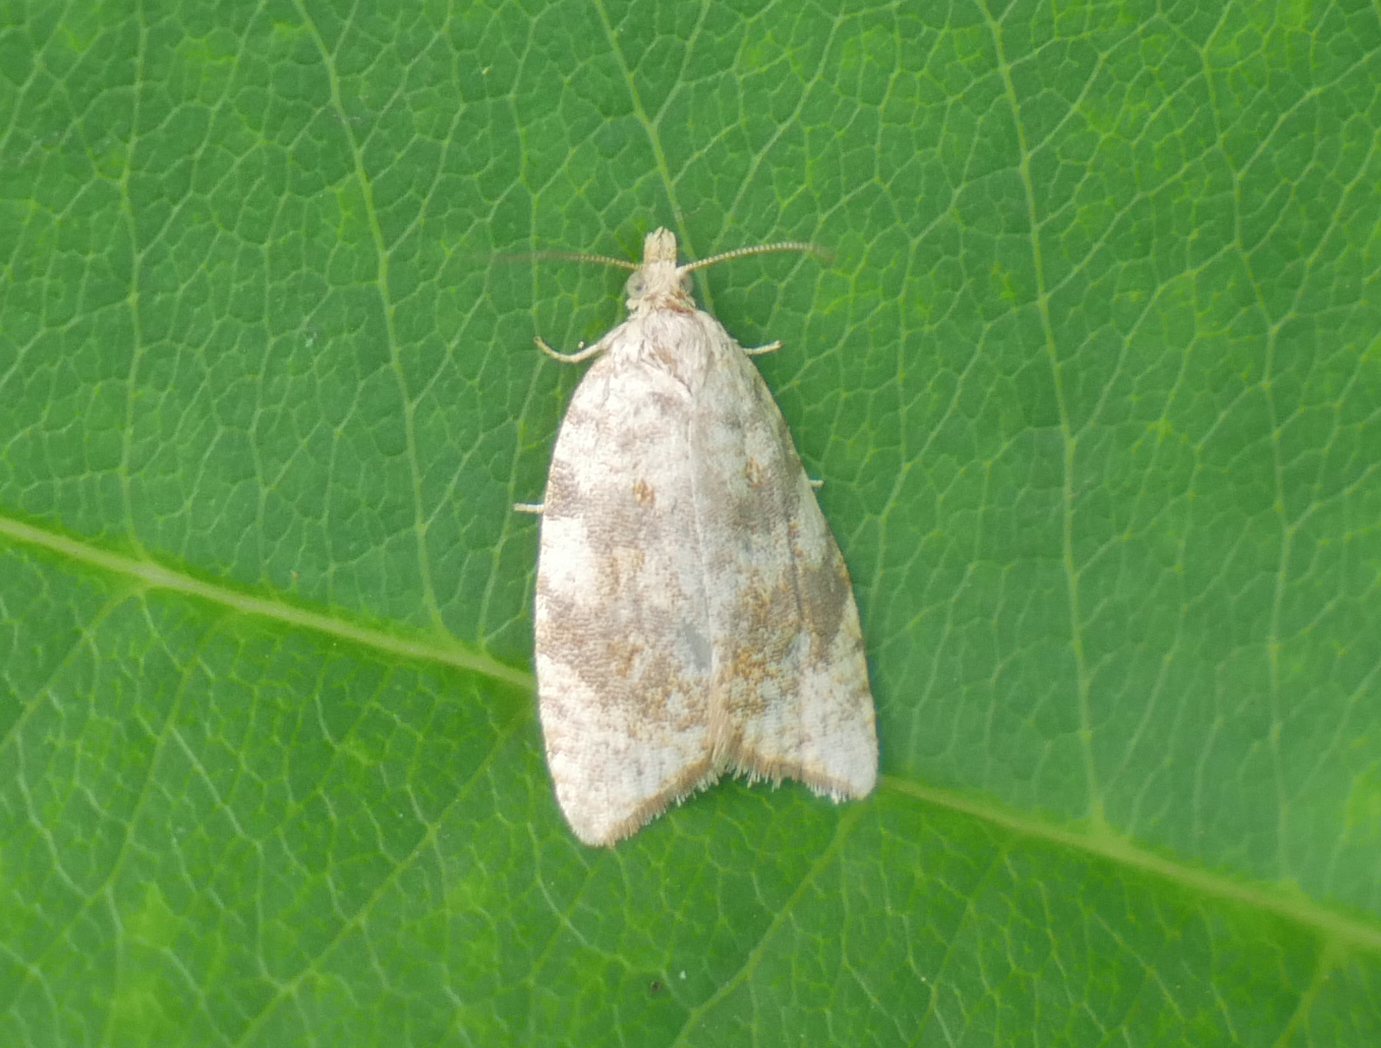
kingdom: Animalia
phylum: Arthropoda
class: Insecta
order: Lepidoptera
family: Tortricidae
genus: Aleimma
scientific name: Aleimma loeflingiana
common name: Yellow oak button
